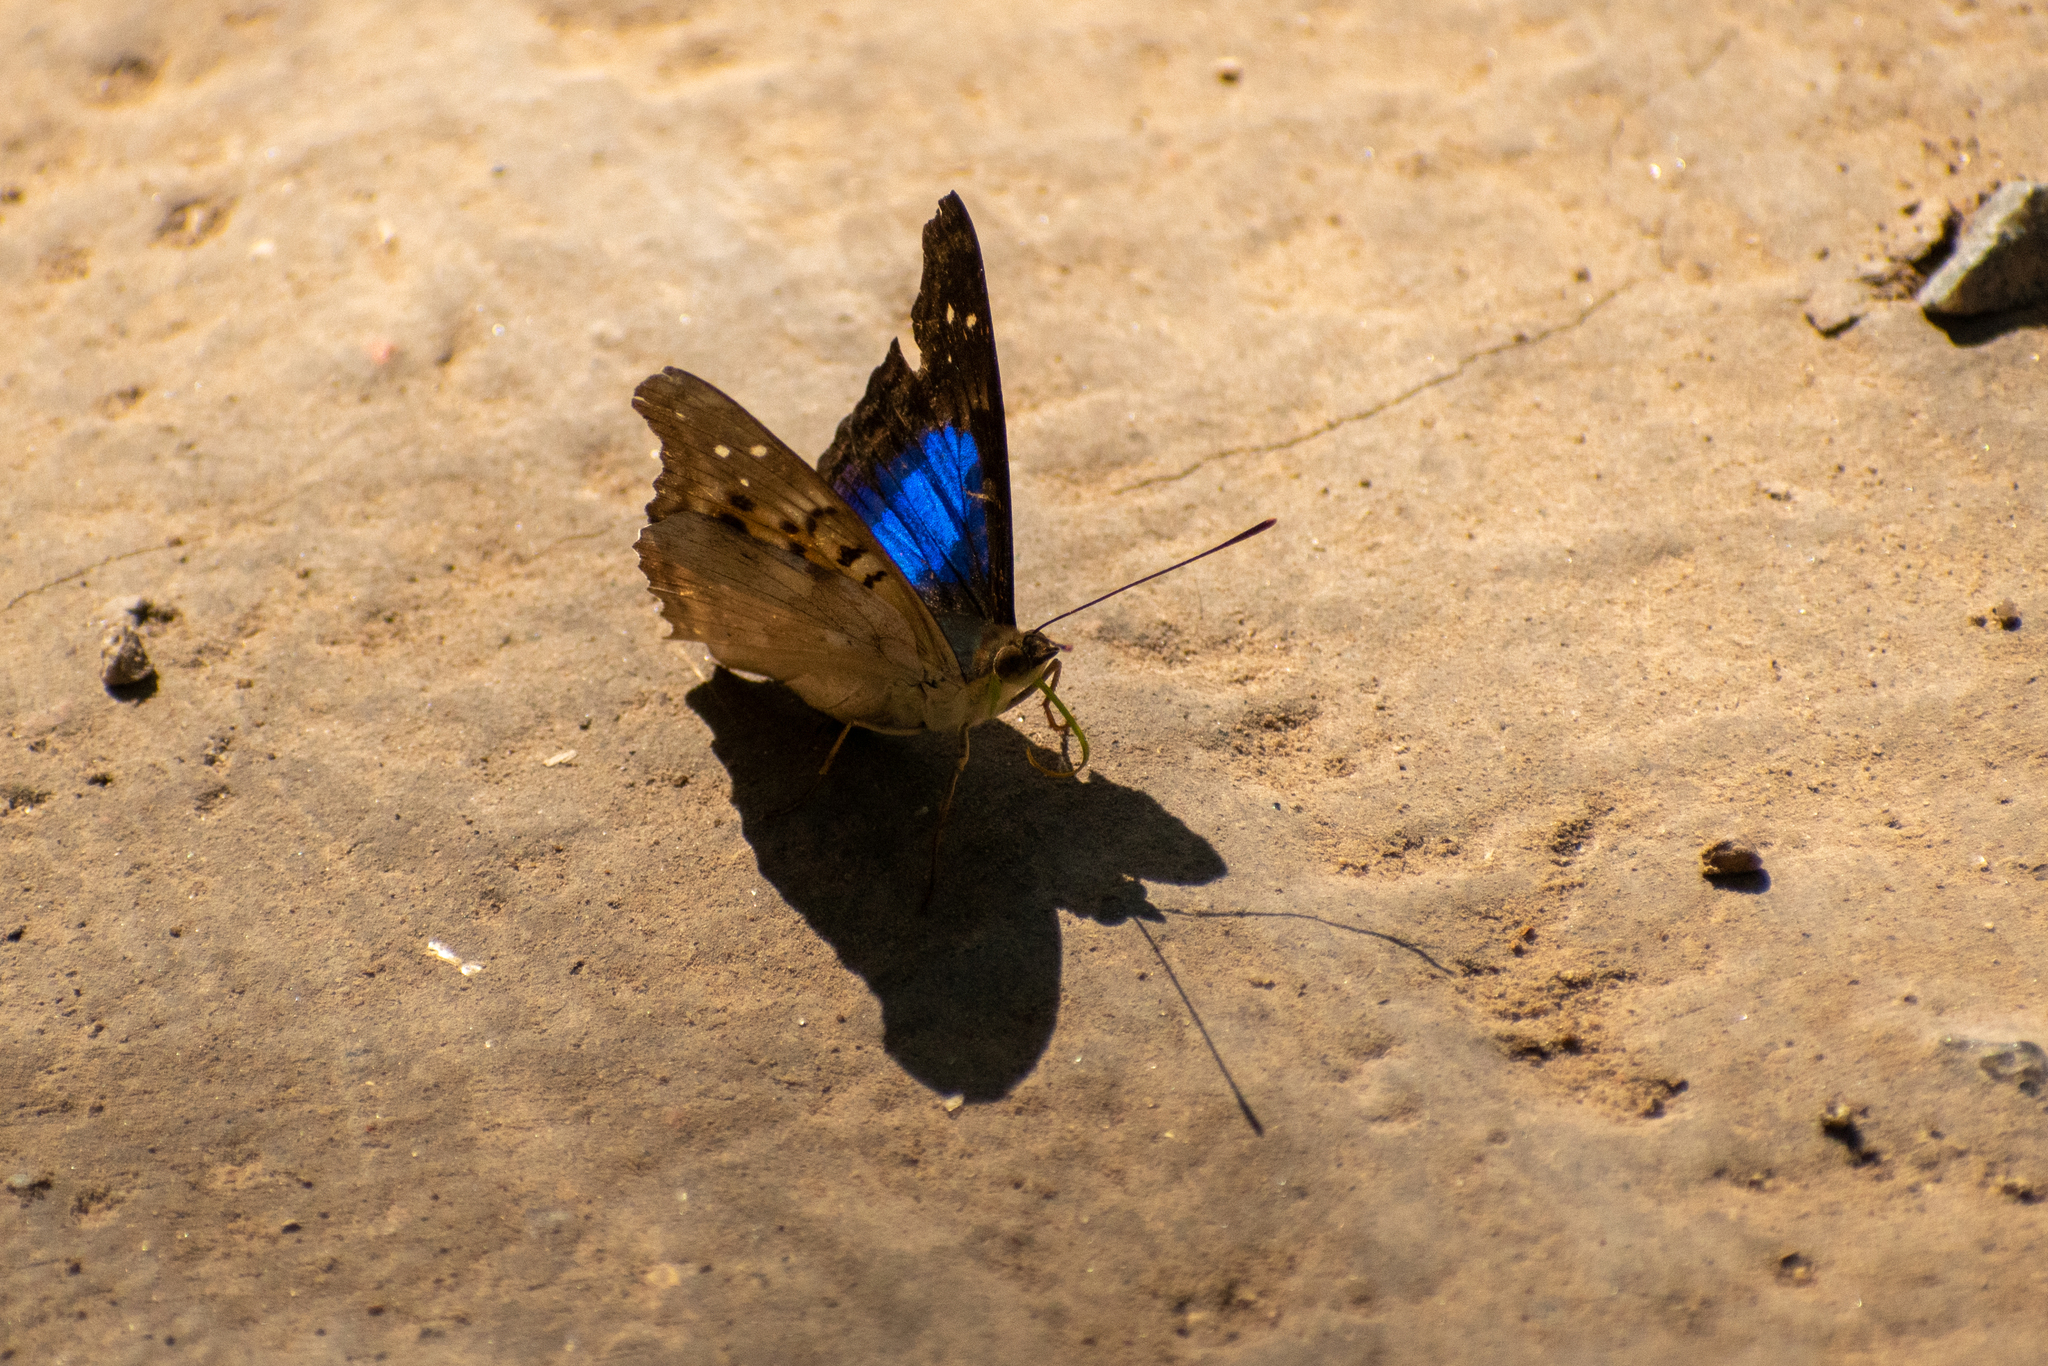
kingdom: Animalia
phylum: Arthropoda
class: Insecta
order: Lepidoptera
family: Nymphalidae
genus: Doxocopa
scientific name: Doxocopa laurentia
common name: Turquoise emperor
